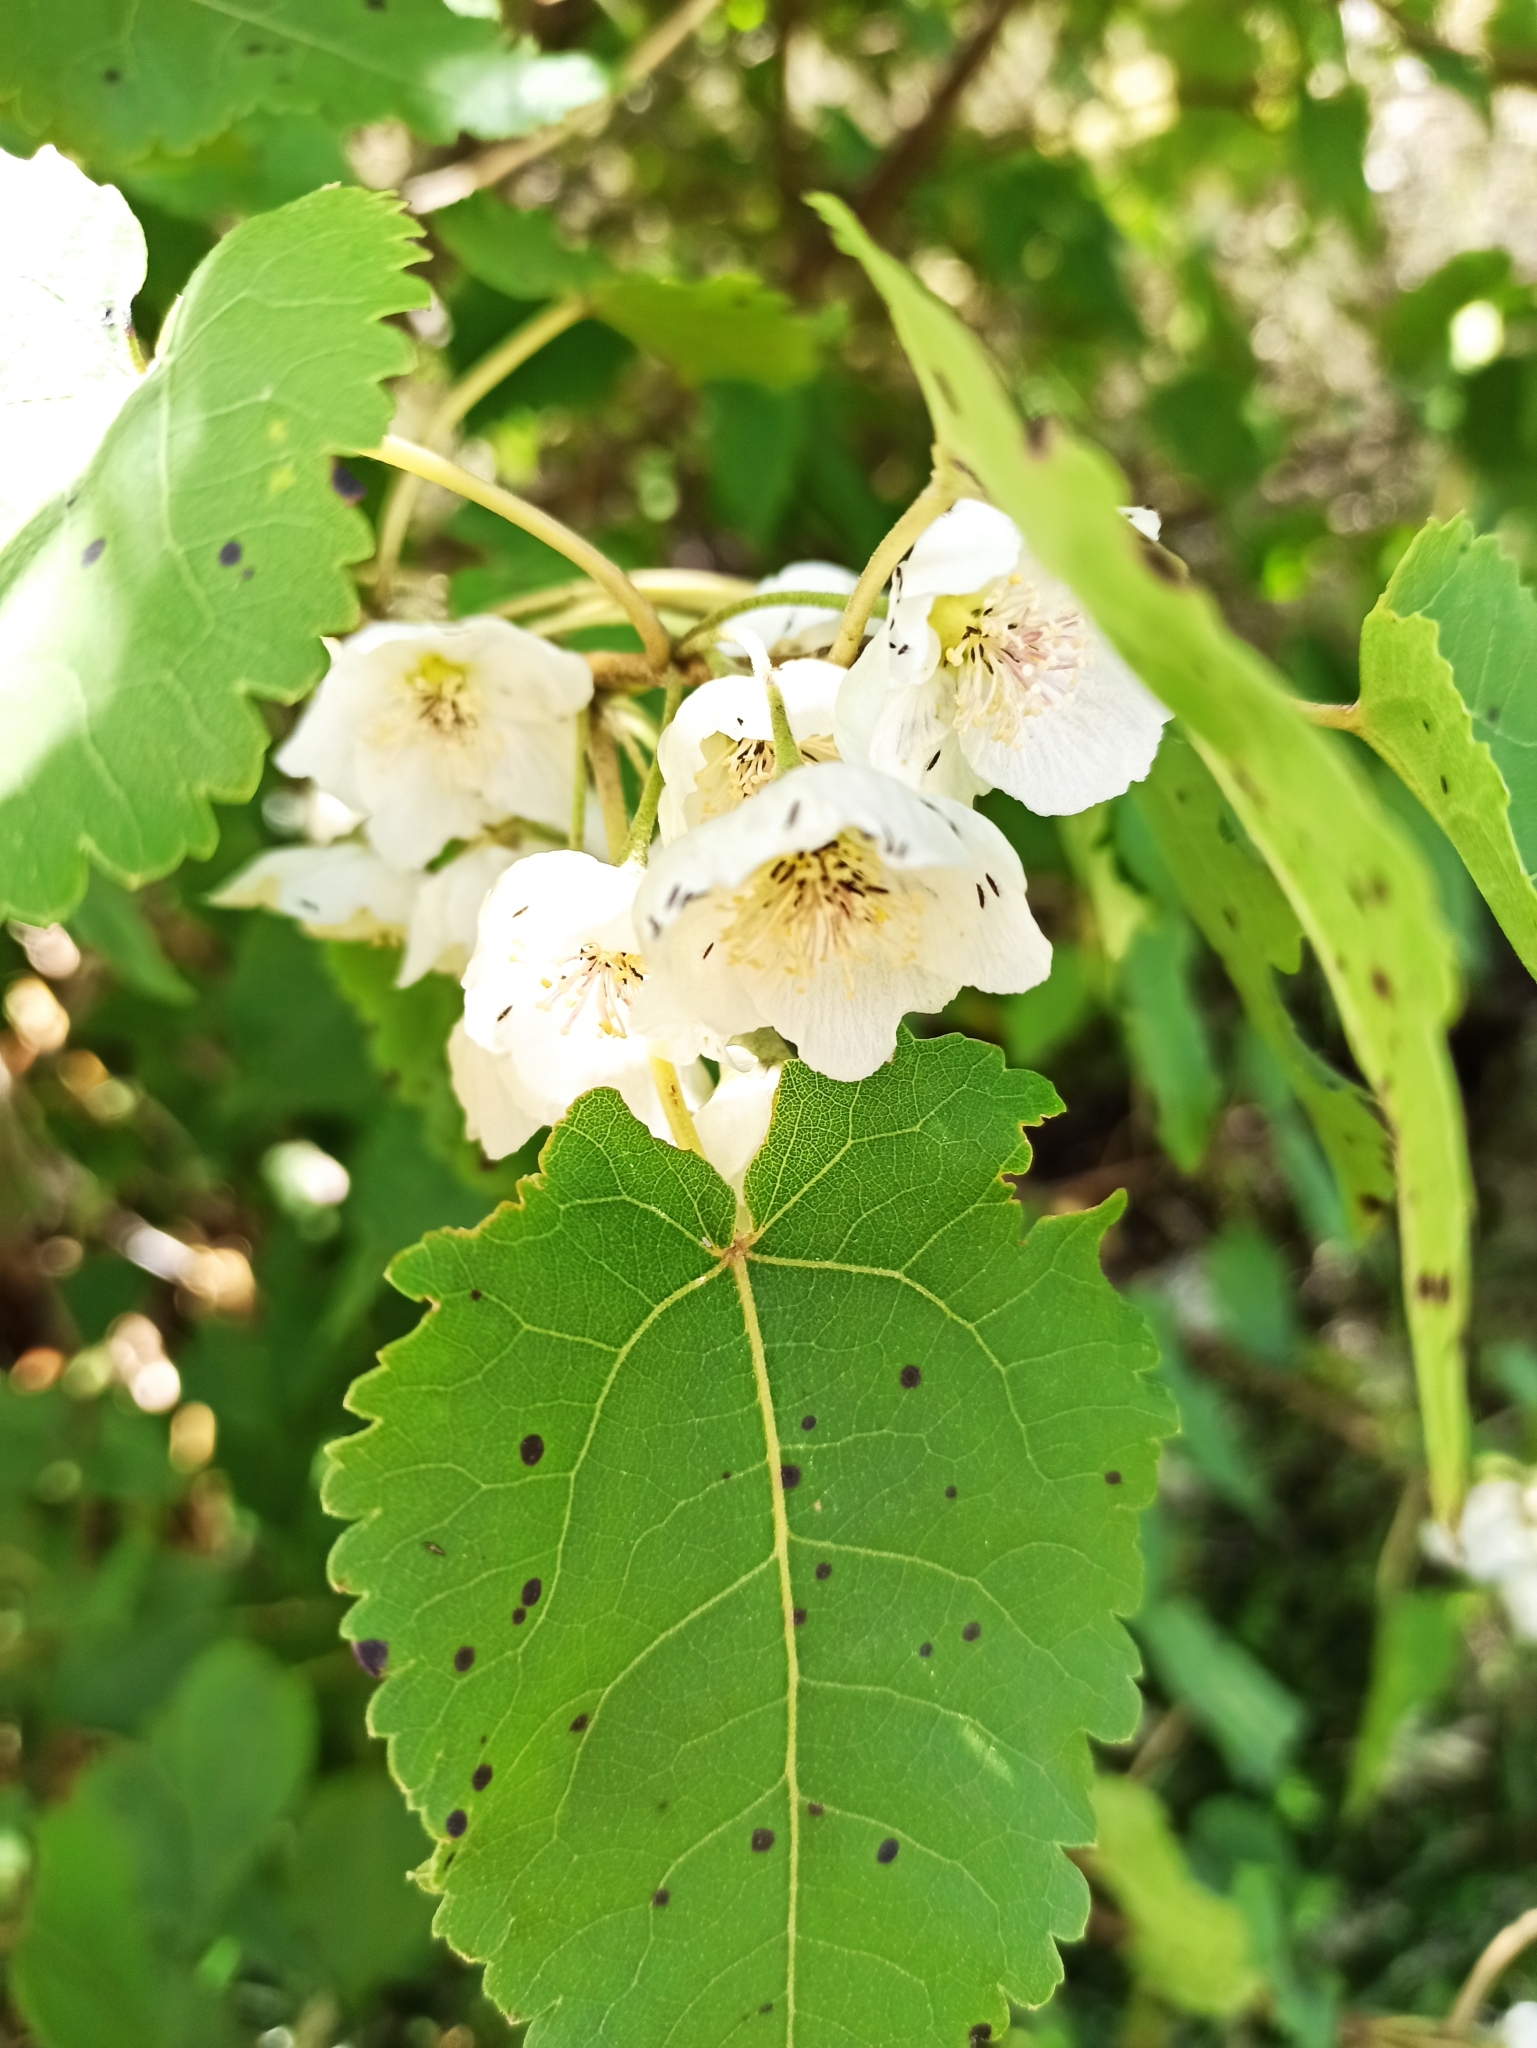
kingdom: Plantae
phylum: Tracheophyta
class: Magnoliopsida
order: Malvales
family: Malvaceae
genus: Hoheria
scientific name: Hoheria glabrata
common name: Mountain-ribbon
